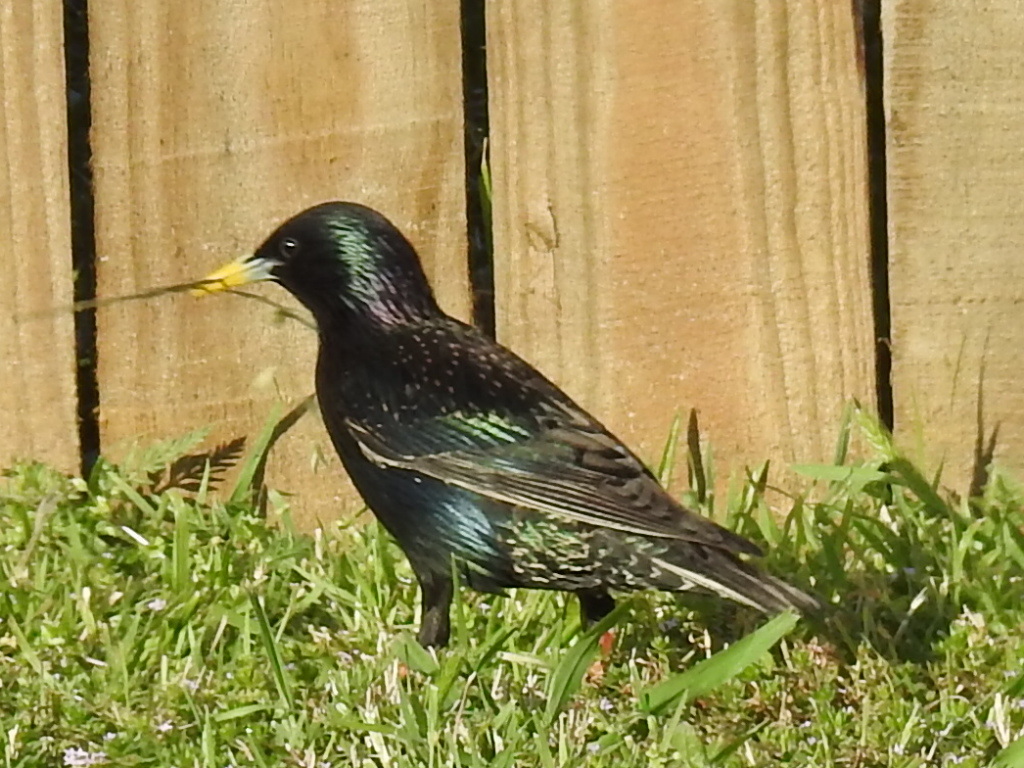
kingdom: Animalia
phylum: Chordata
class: Aves
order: Passeriformes
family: Sturnidae
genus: Sturnus
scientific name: Sturnus vulgaris
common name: Common starling
